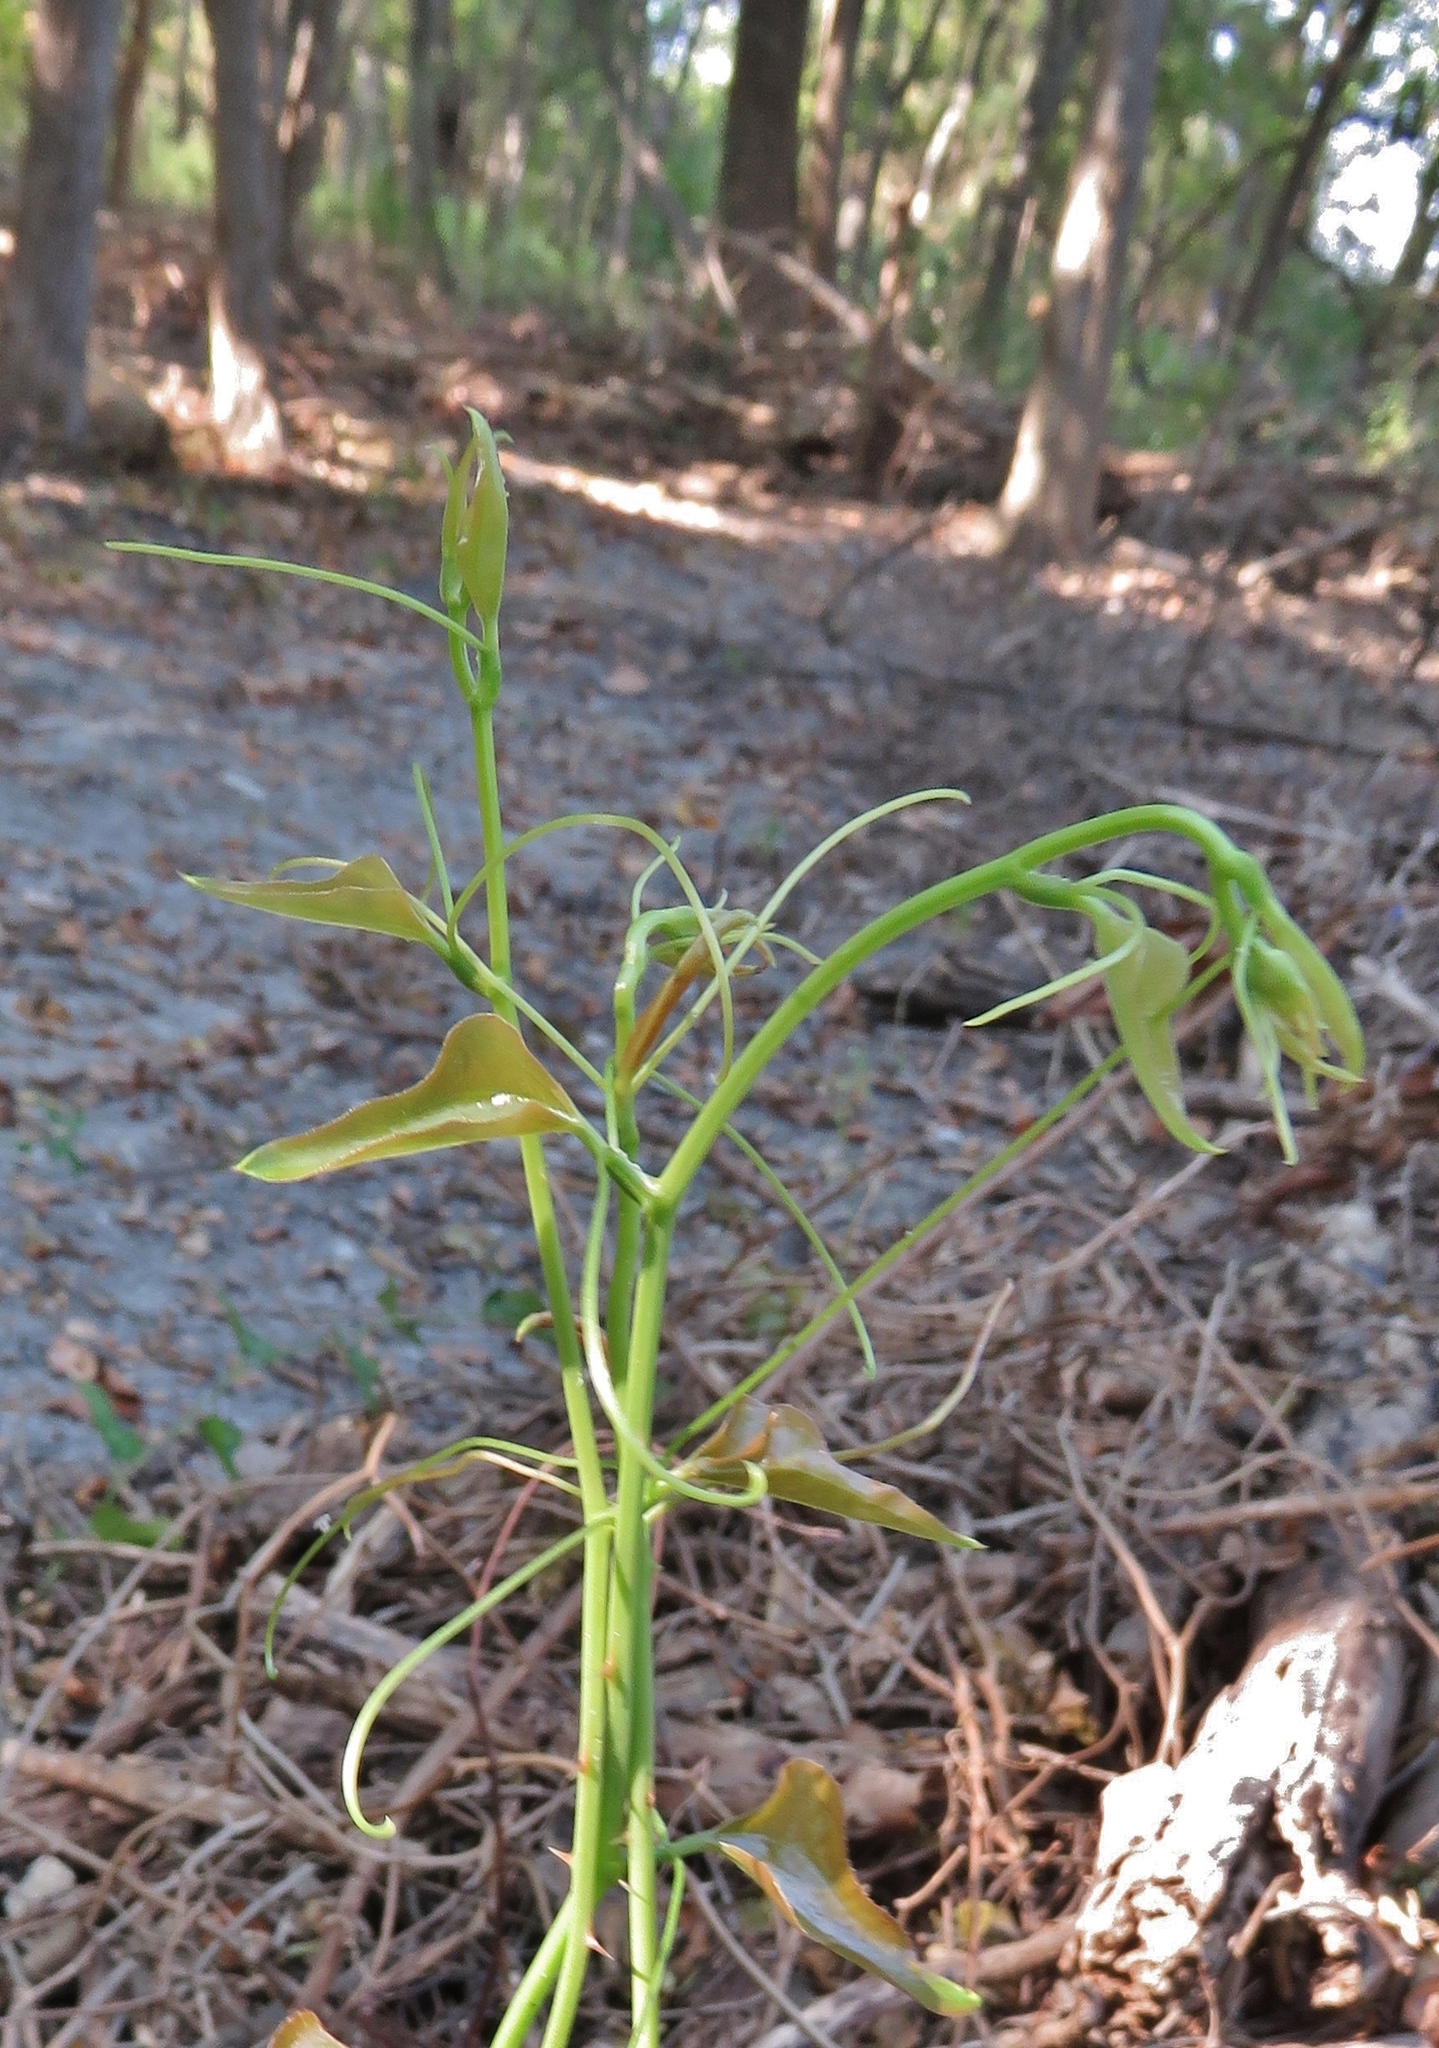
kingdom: Plantae
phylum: Tracheophyta
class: Liliopsida
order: Liliales
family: Smilacaceae
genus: Smilax
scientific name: Smilax bona-nox
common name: Catbrier
